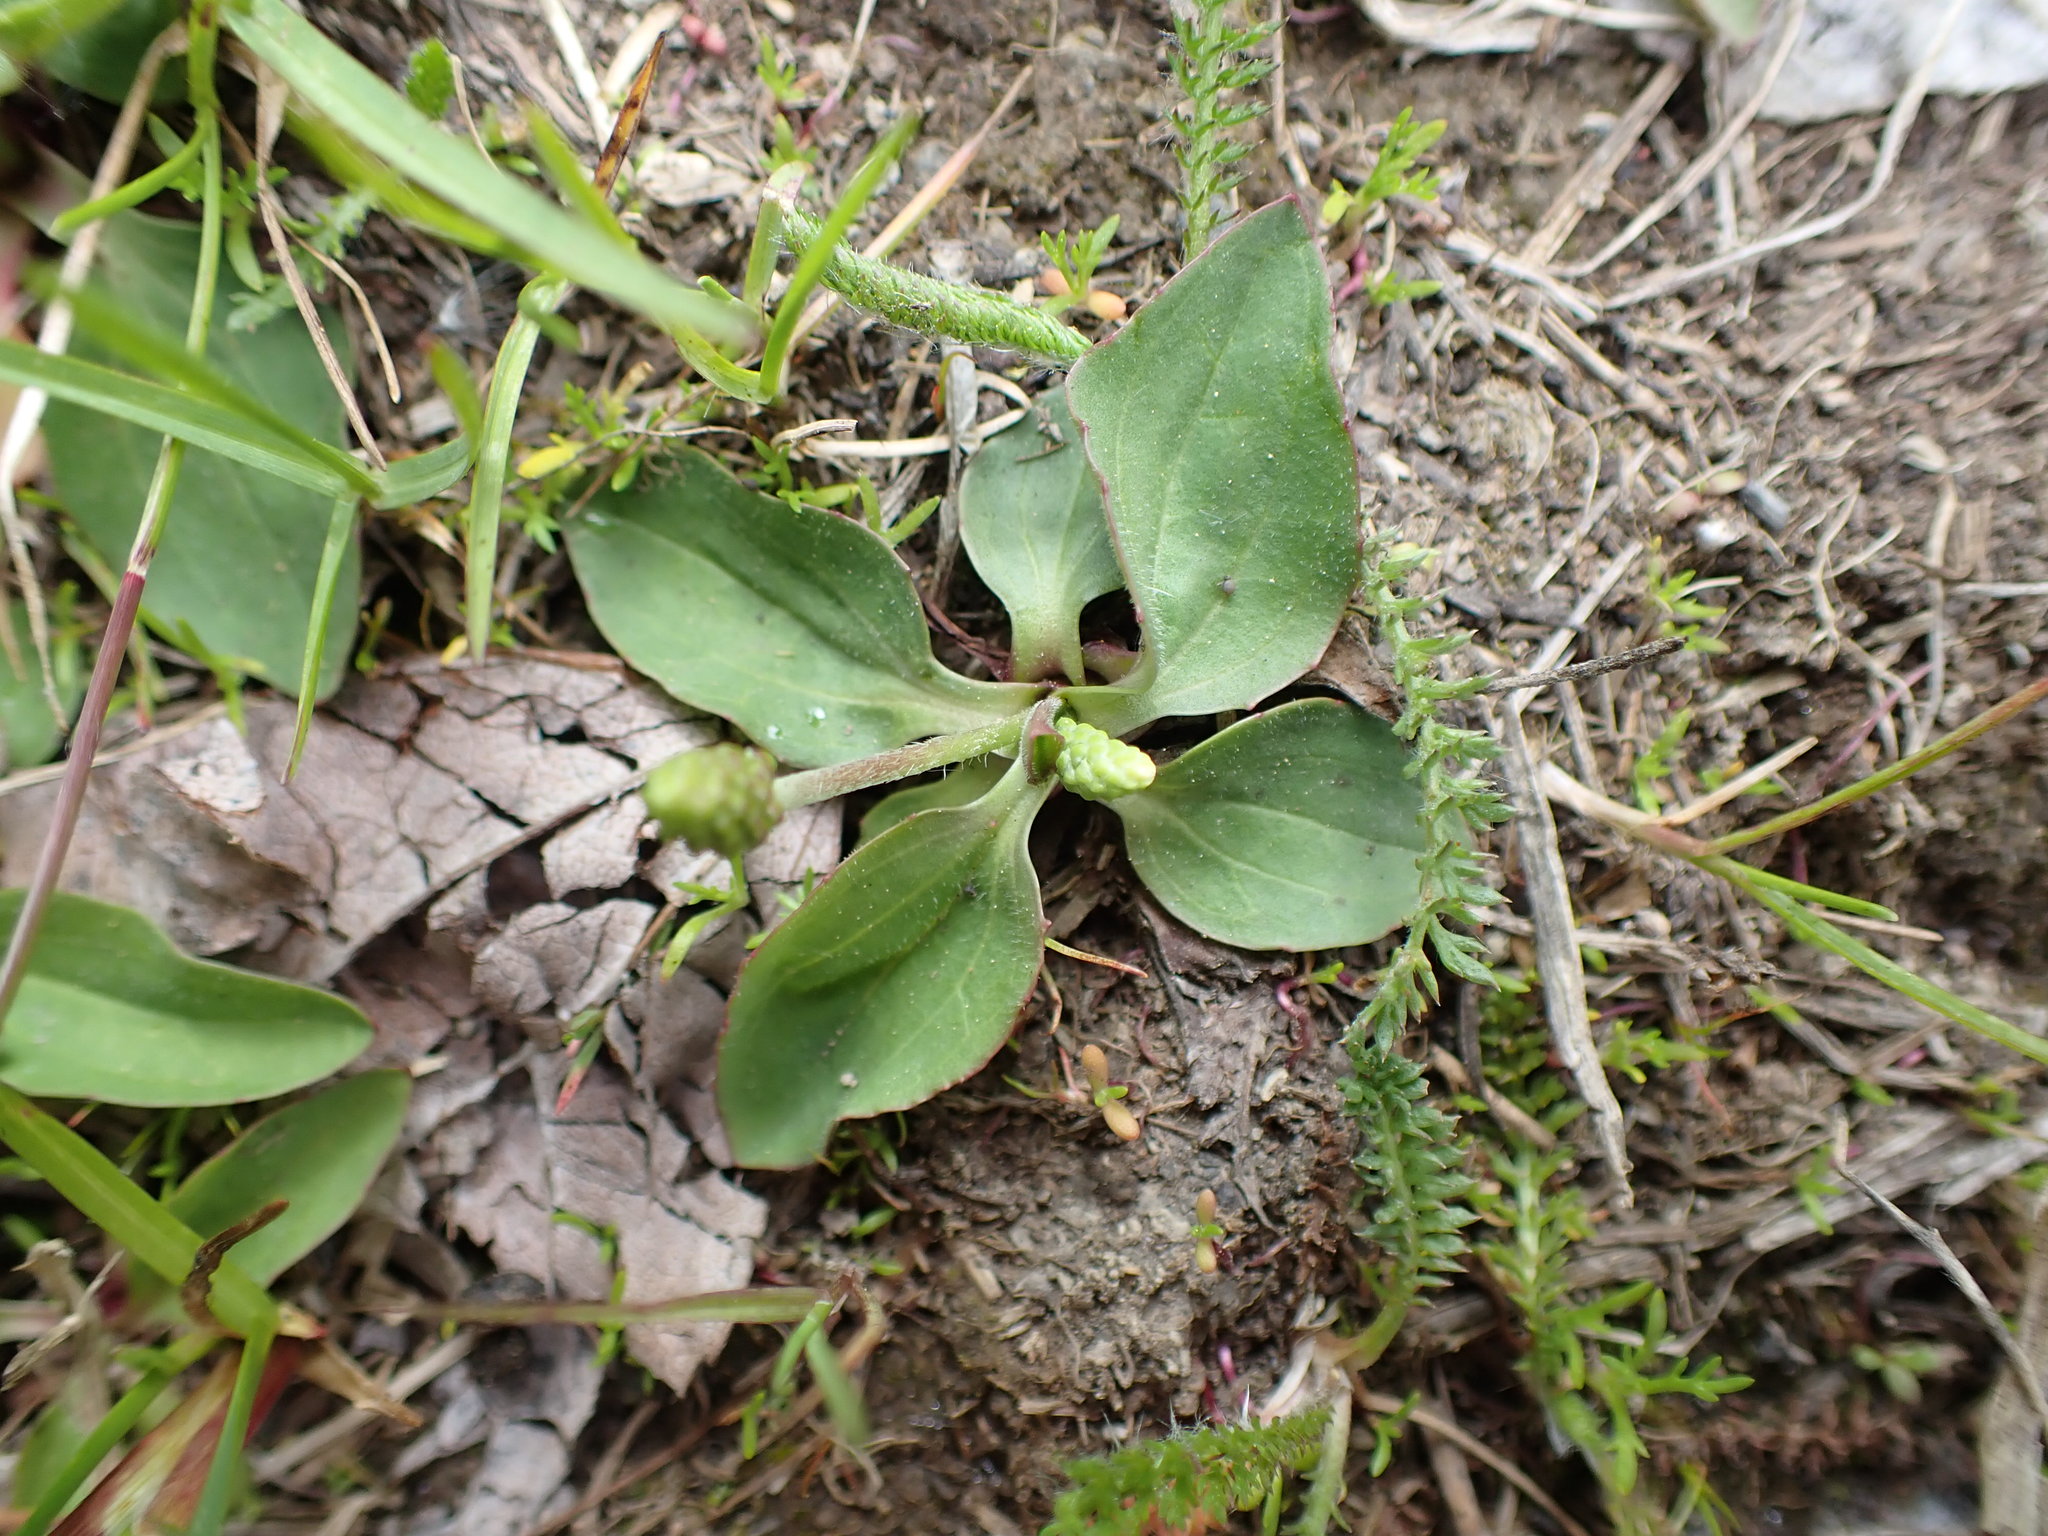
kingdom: Plantae
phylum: Tracheophyta
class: Magnoliopsida
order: Lamiales
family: Plantaginaceae
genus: Plantago
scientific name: Plantago major
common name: Common plantain
